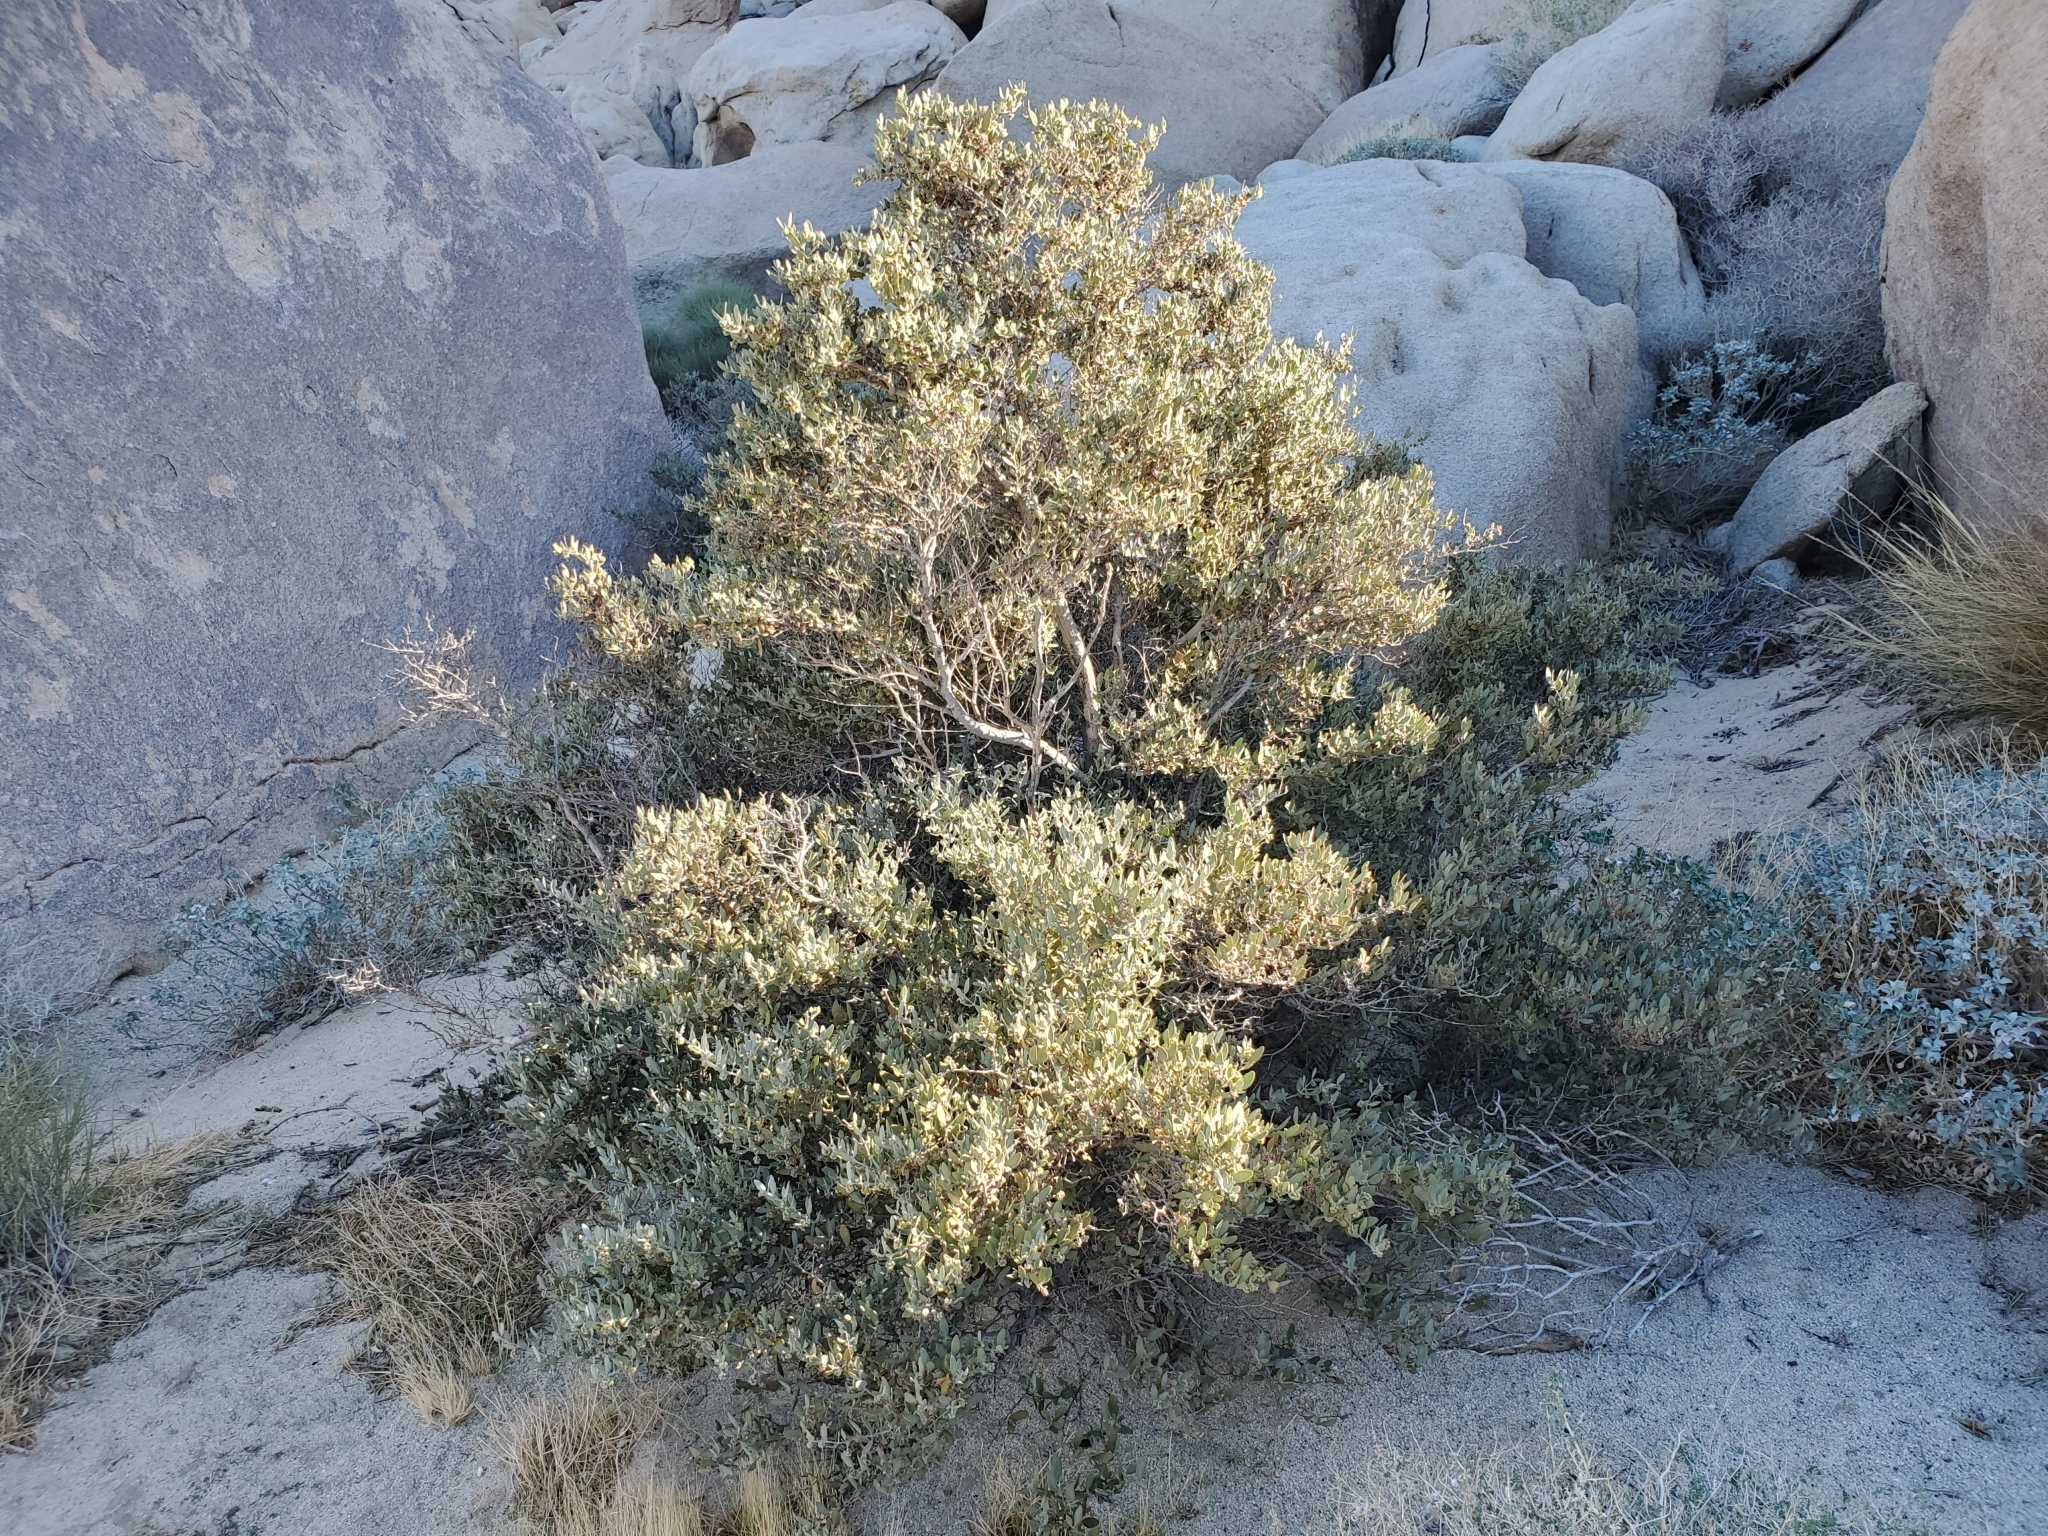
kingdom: Plantae
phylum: Tracheophyta
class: Magnoliopsida
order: Caryophyllales
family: Simmondsiaceae
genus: Simmondsia
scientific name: Simmondsia chinensis
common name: Jojoba
